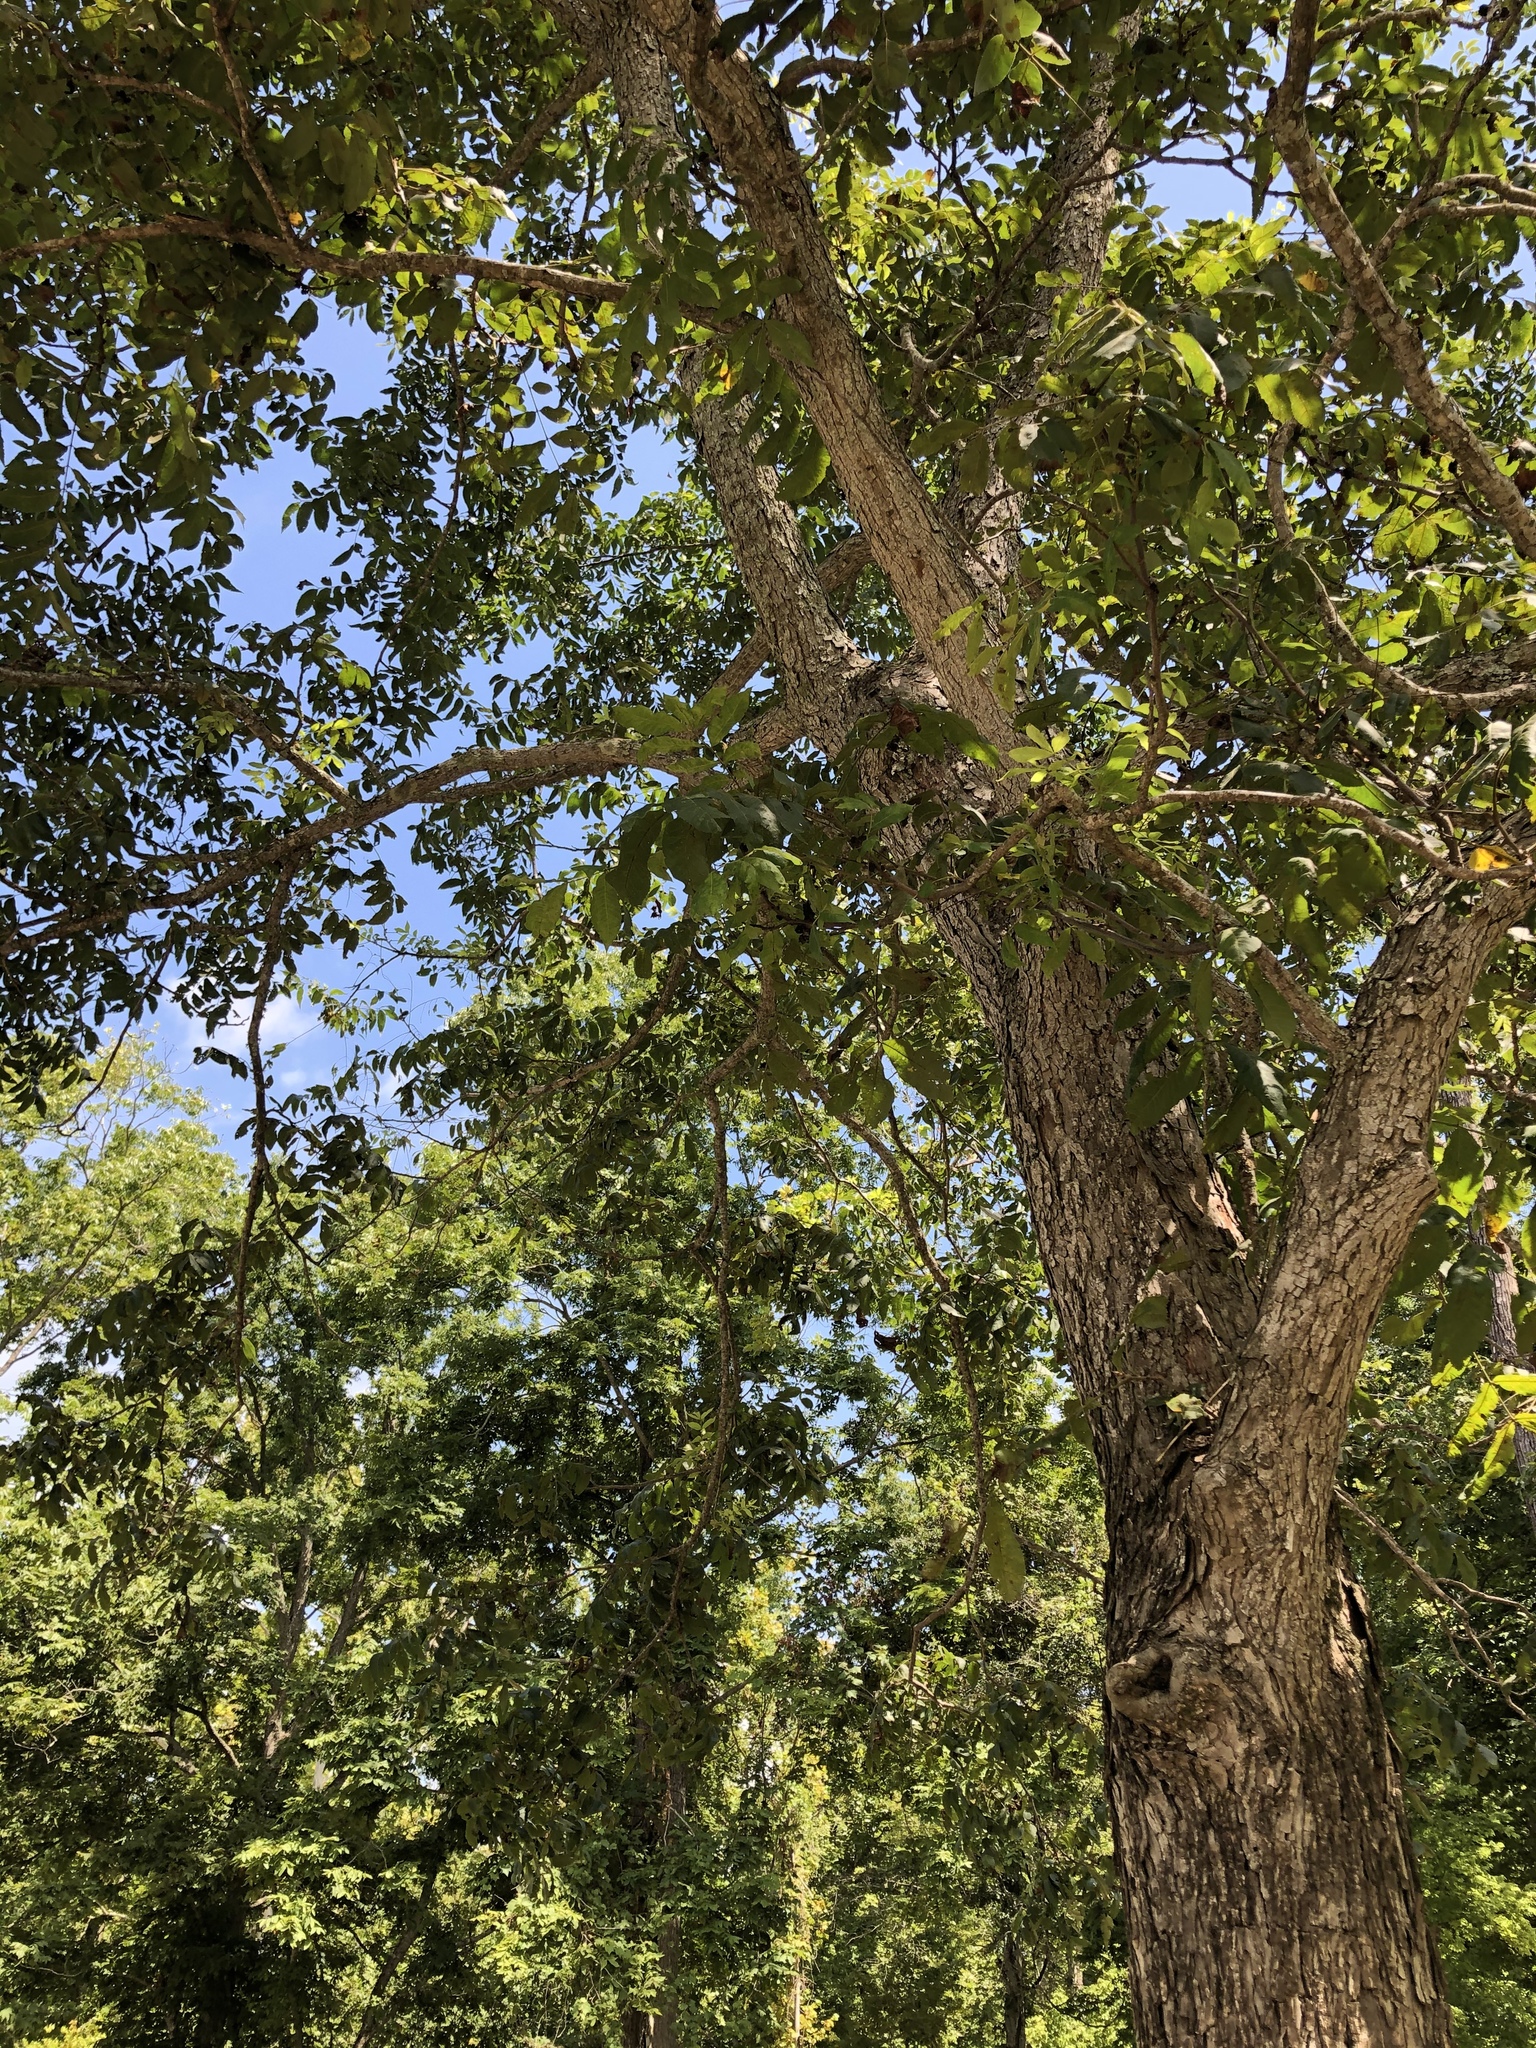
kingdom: Plantae
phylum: Tracheophyta
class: Magnoliopsida
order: Fagales
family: Juglandaceae
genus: Carya
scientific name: Carya illinoinensis
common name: Pecan
